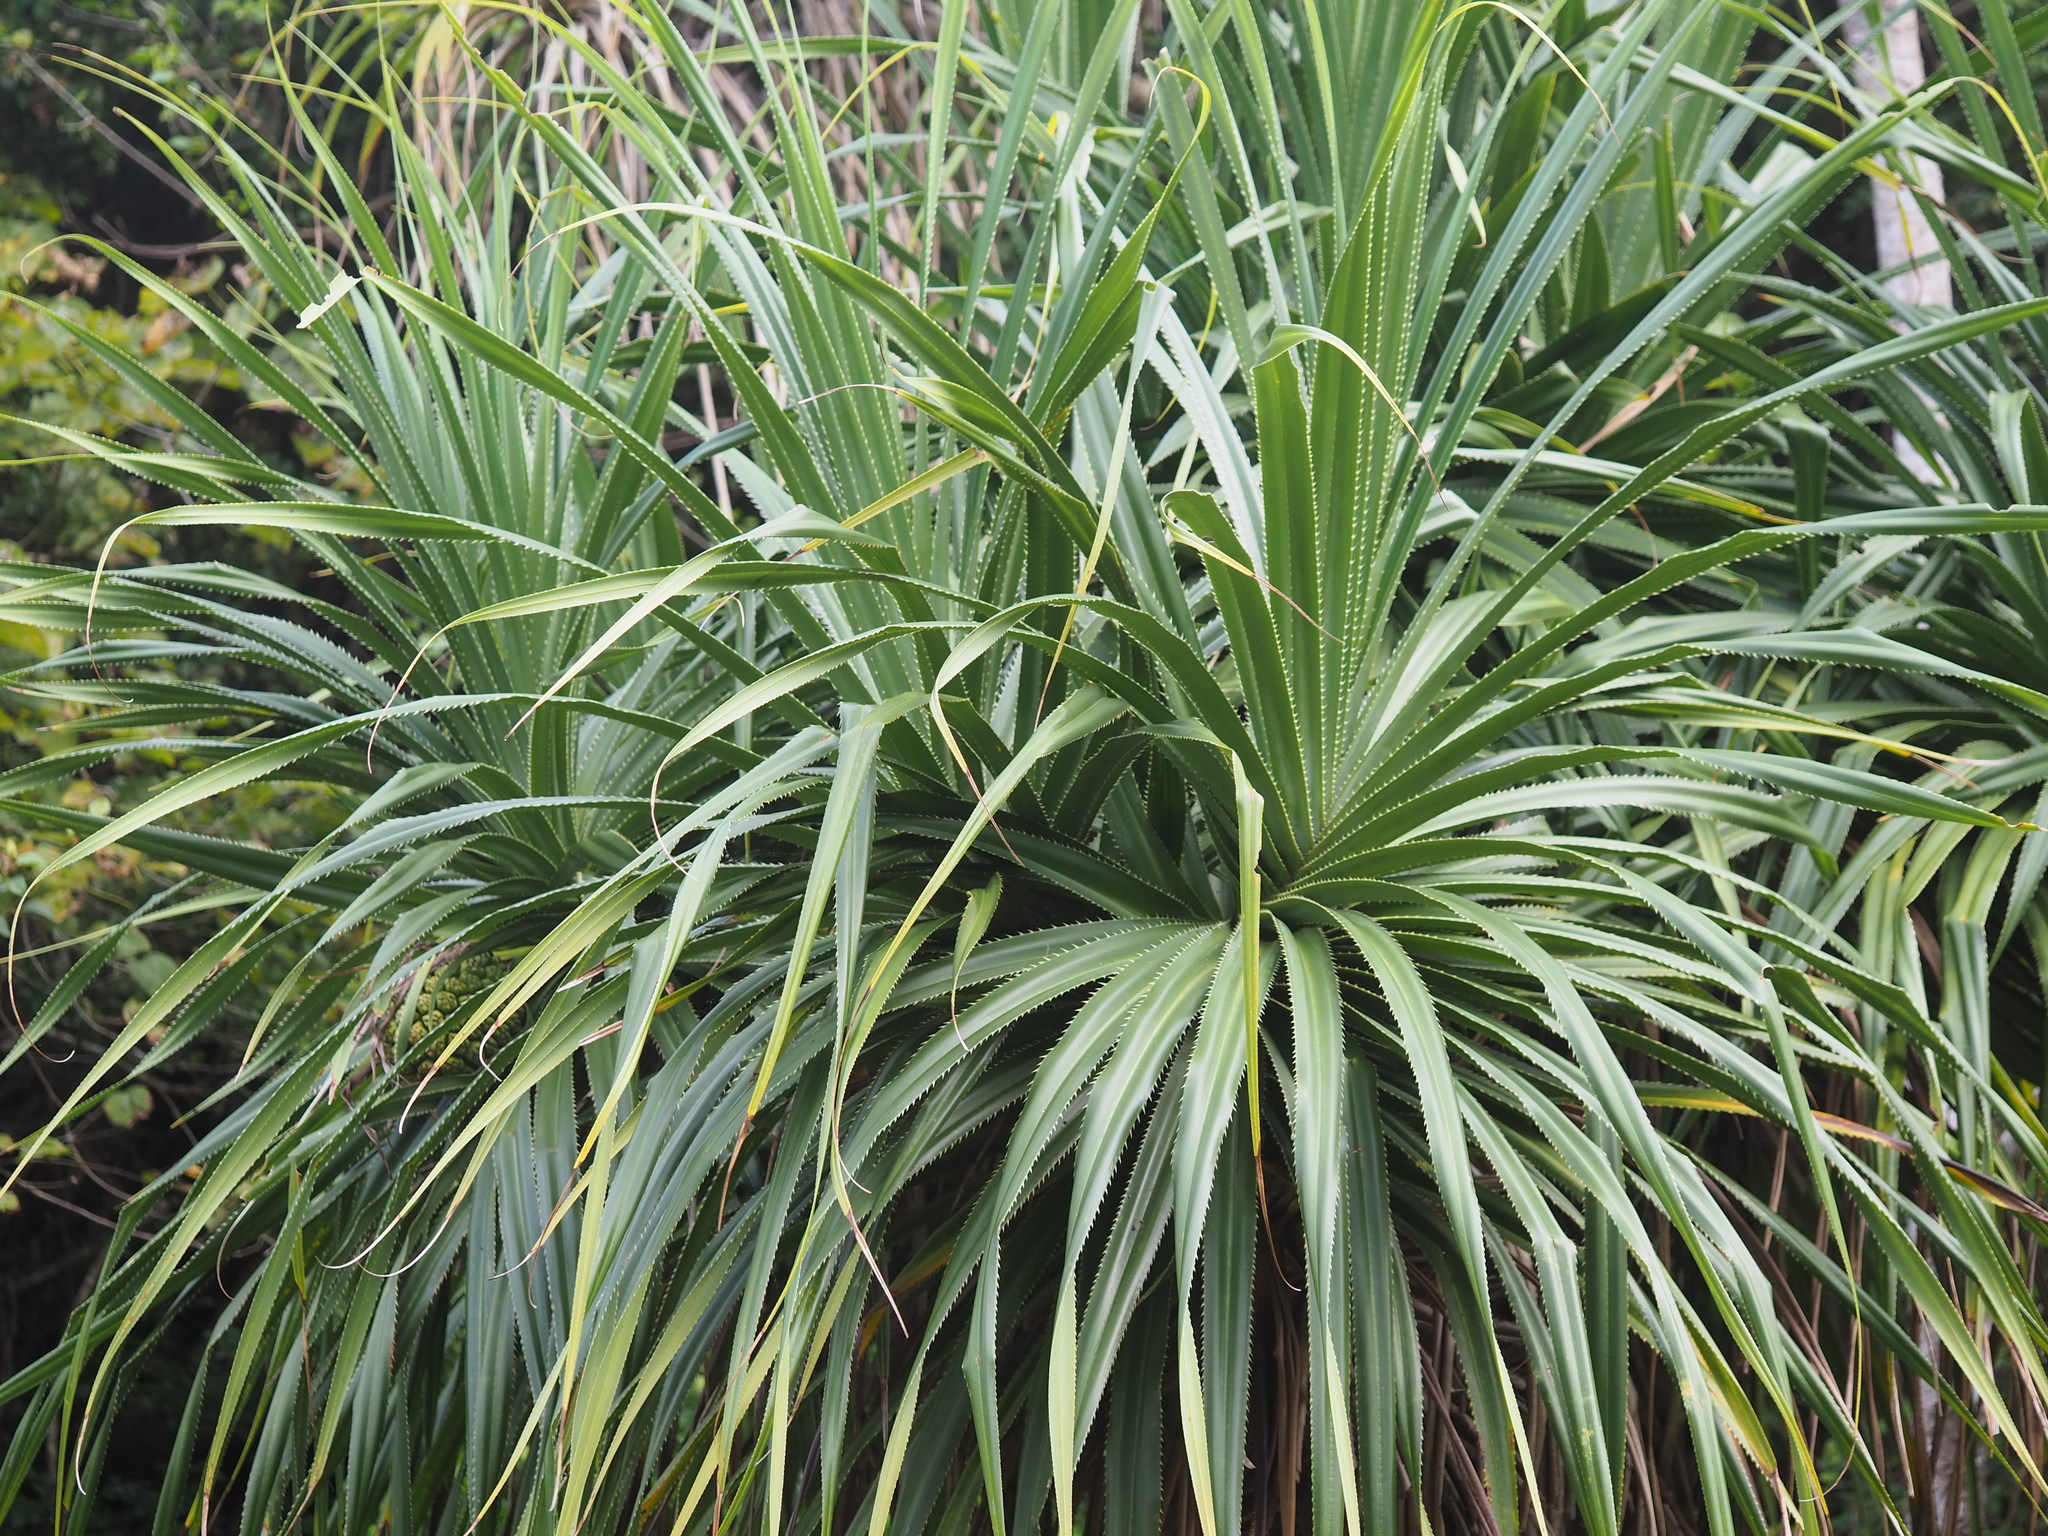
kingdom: Plantae
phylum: Tracheophyta
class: Liliopsida
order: Pandanales
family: Pandanaceae
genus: Pandanus
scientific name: Pandanus odorifer
